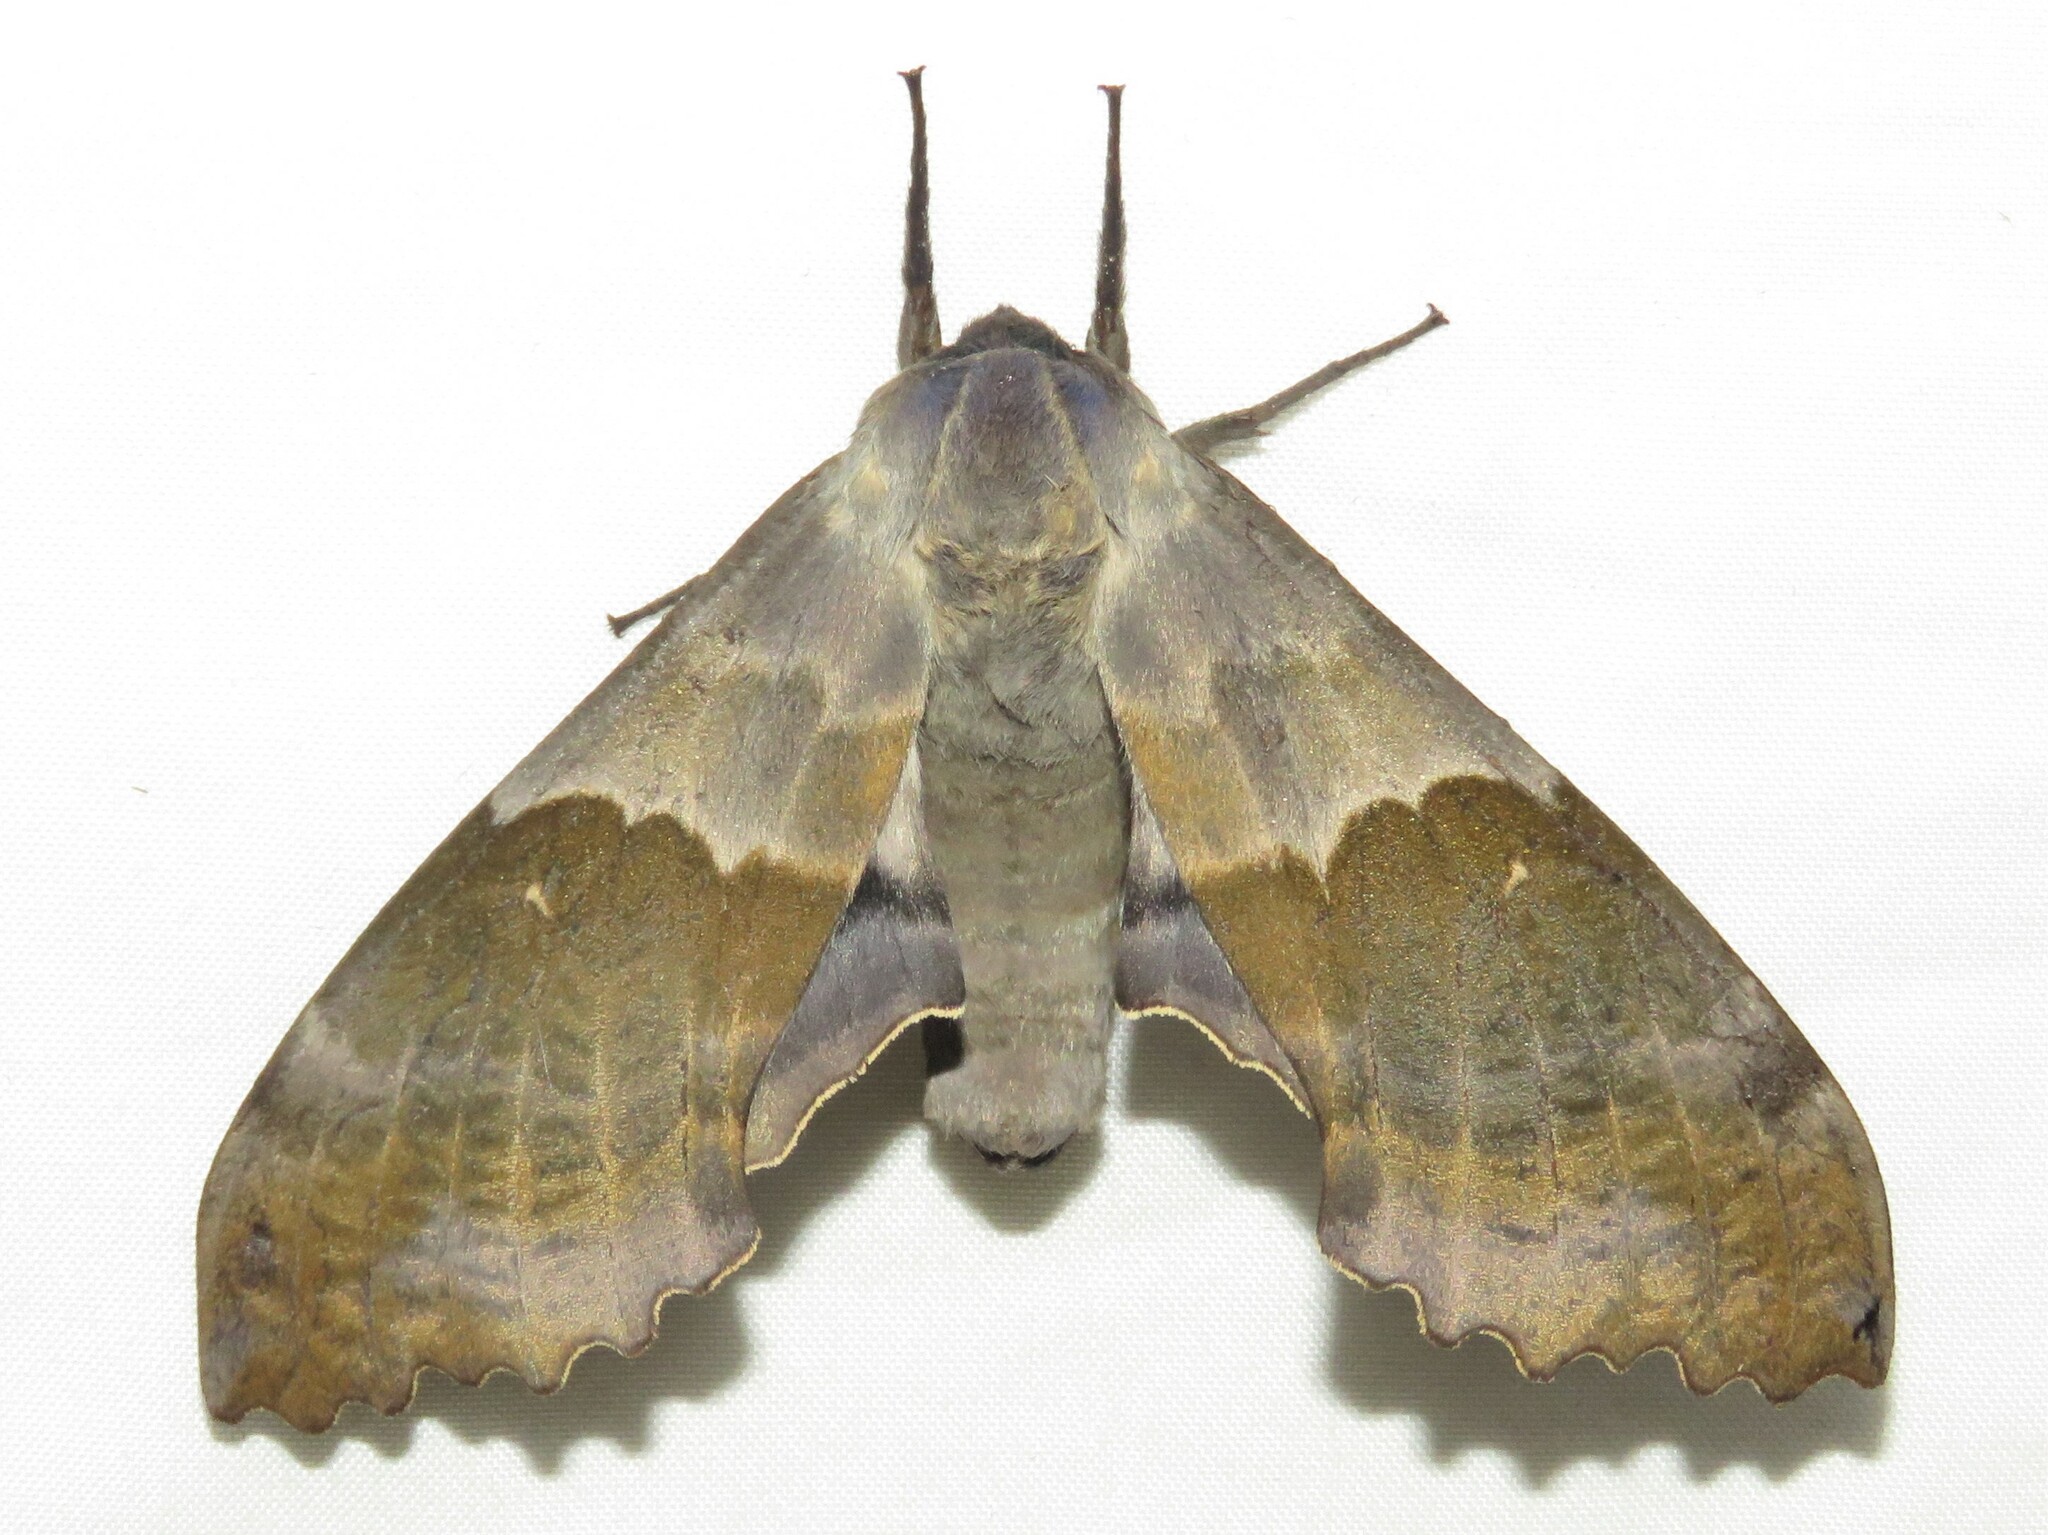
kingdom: Animalia
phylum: Arthropoda
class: Insecta
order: Lepidoptera
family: Sphingidae
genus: Pachysphinx
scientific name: Pachysphinx modesta
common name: Big poplar sphinx
